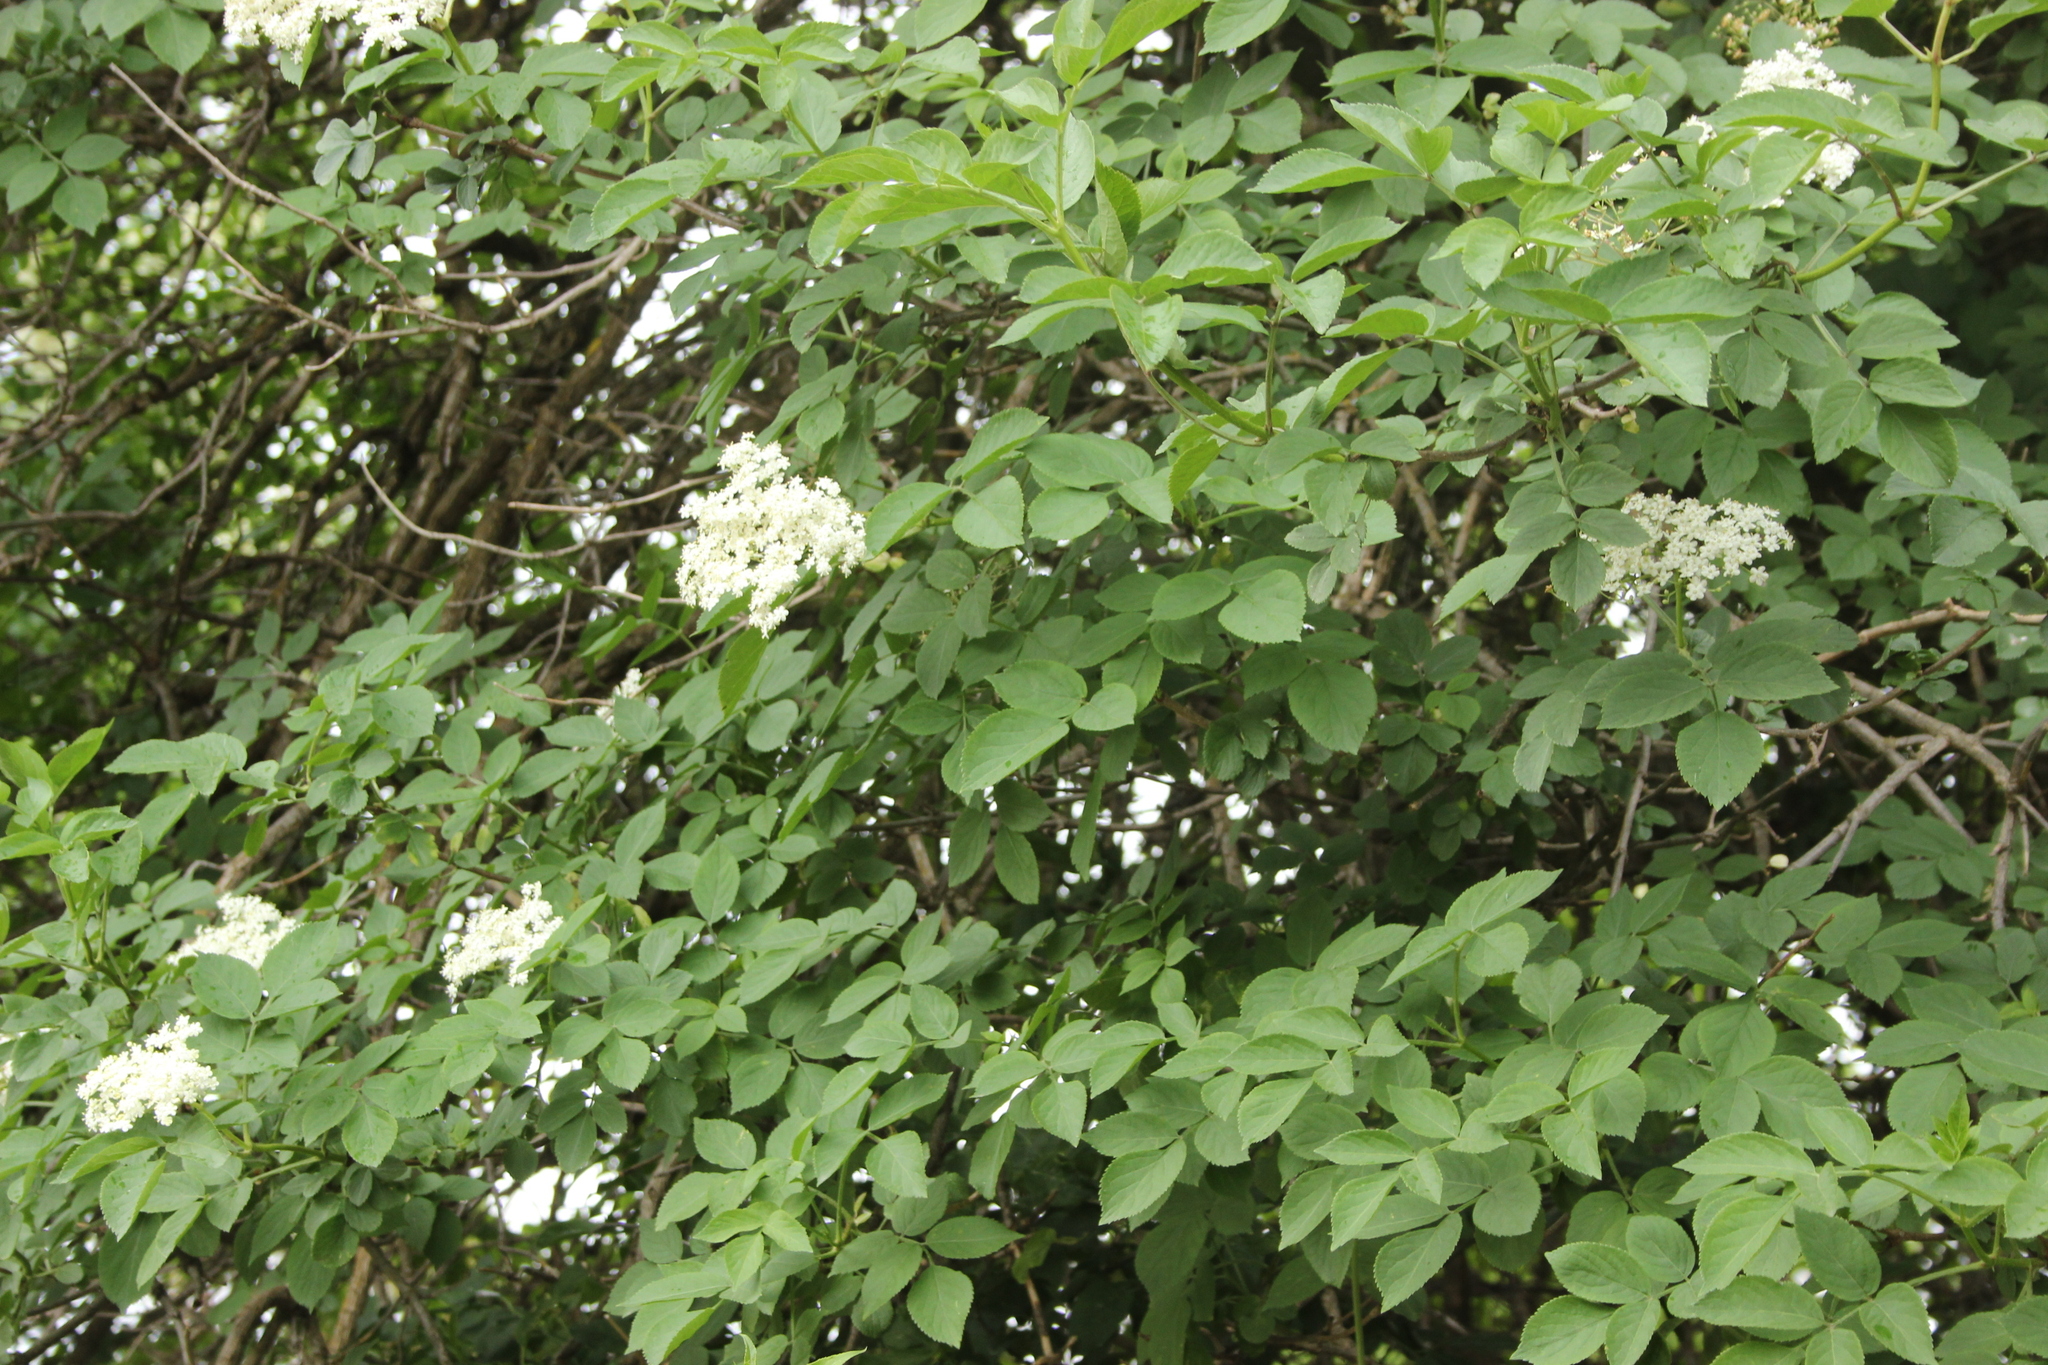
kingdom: Plantae
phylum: Tracheophyta
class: Magnoliopsida
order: Dipsacales
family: Viburnaceae
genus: Sambucus
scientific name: Sambucus nigra
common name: Elder
